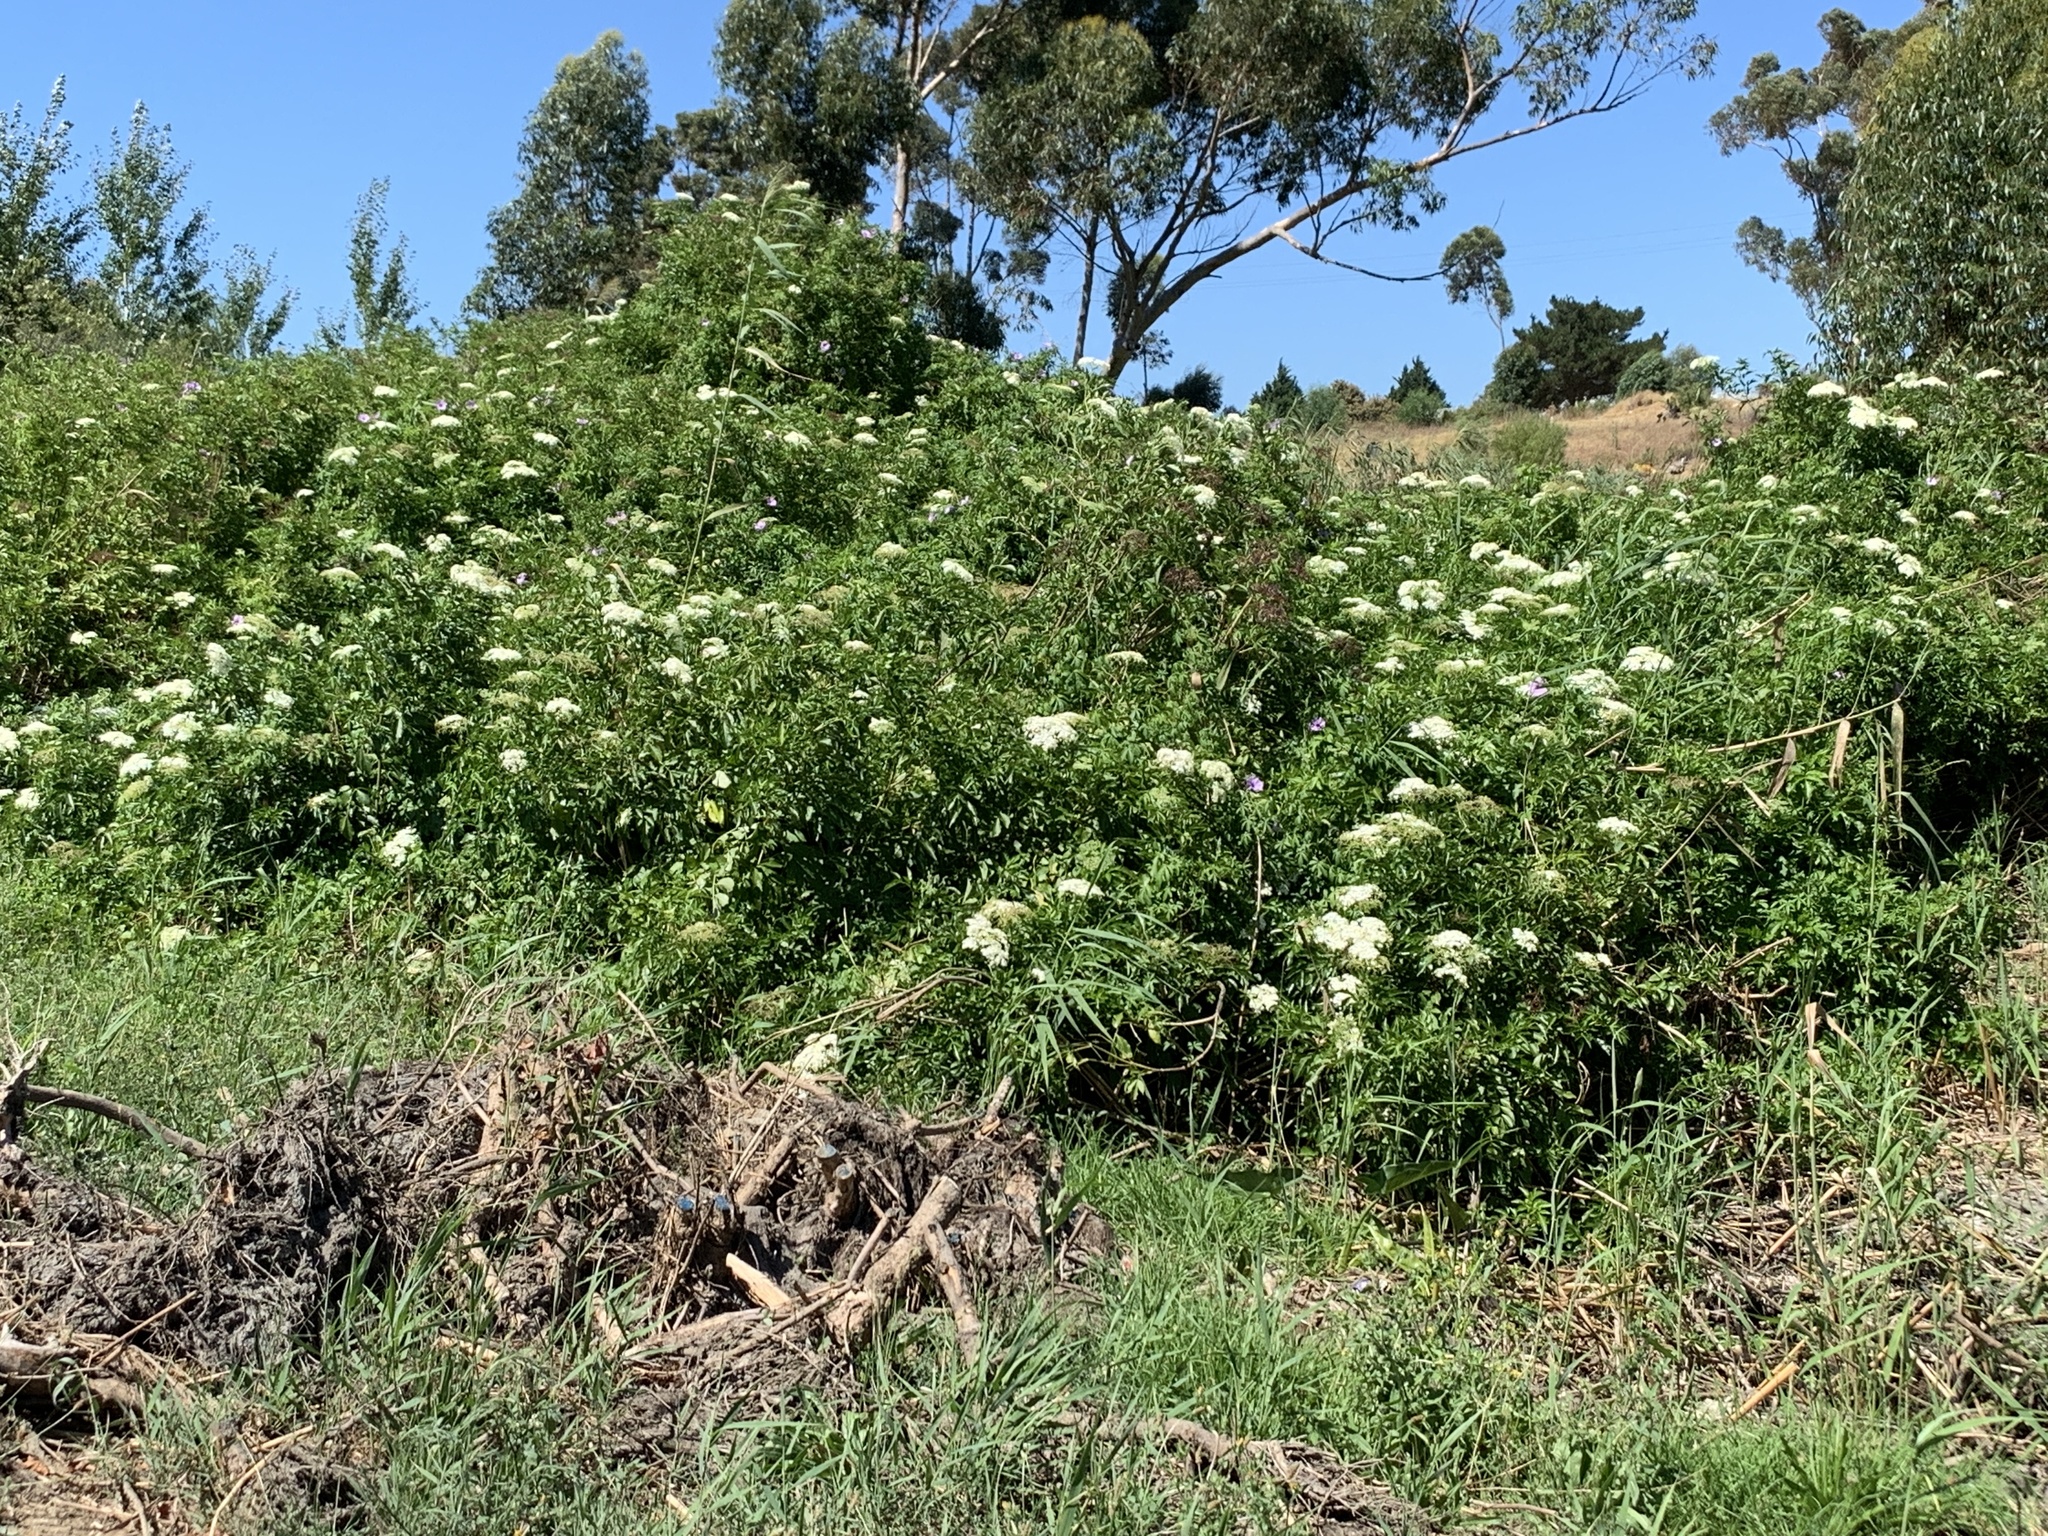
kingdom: Plantae
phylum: Tracheophyta
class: Magnoliopsida
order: Dipsacales
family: Viburnaceae
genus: Sambucus
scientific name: Sambucus nigra
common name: Elder
